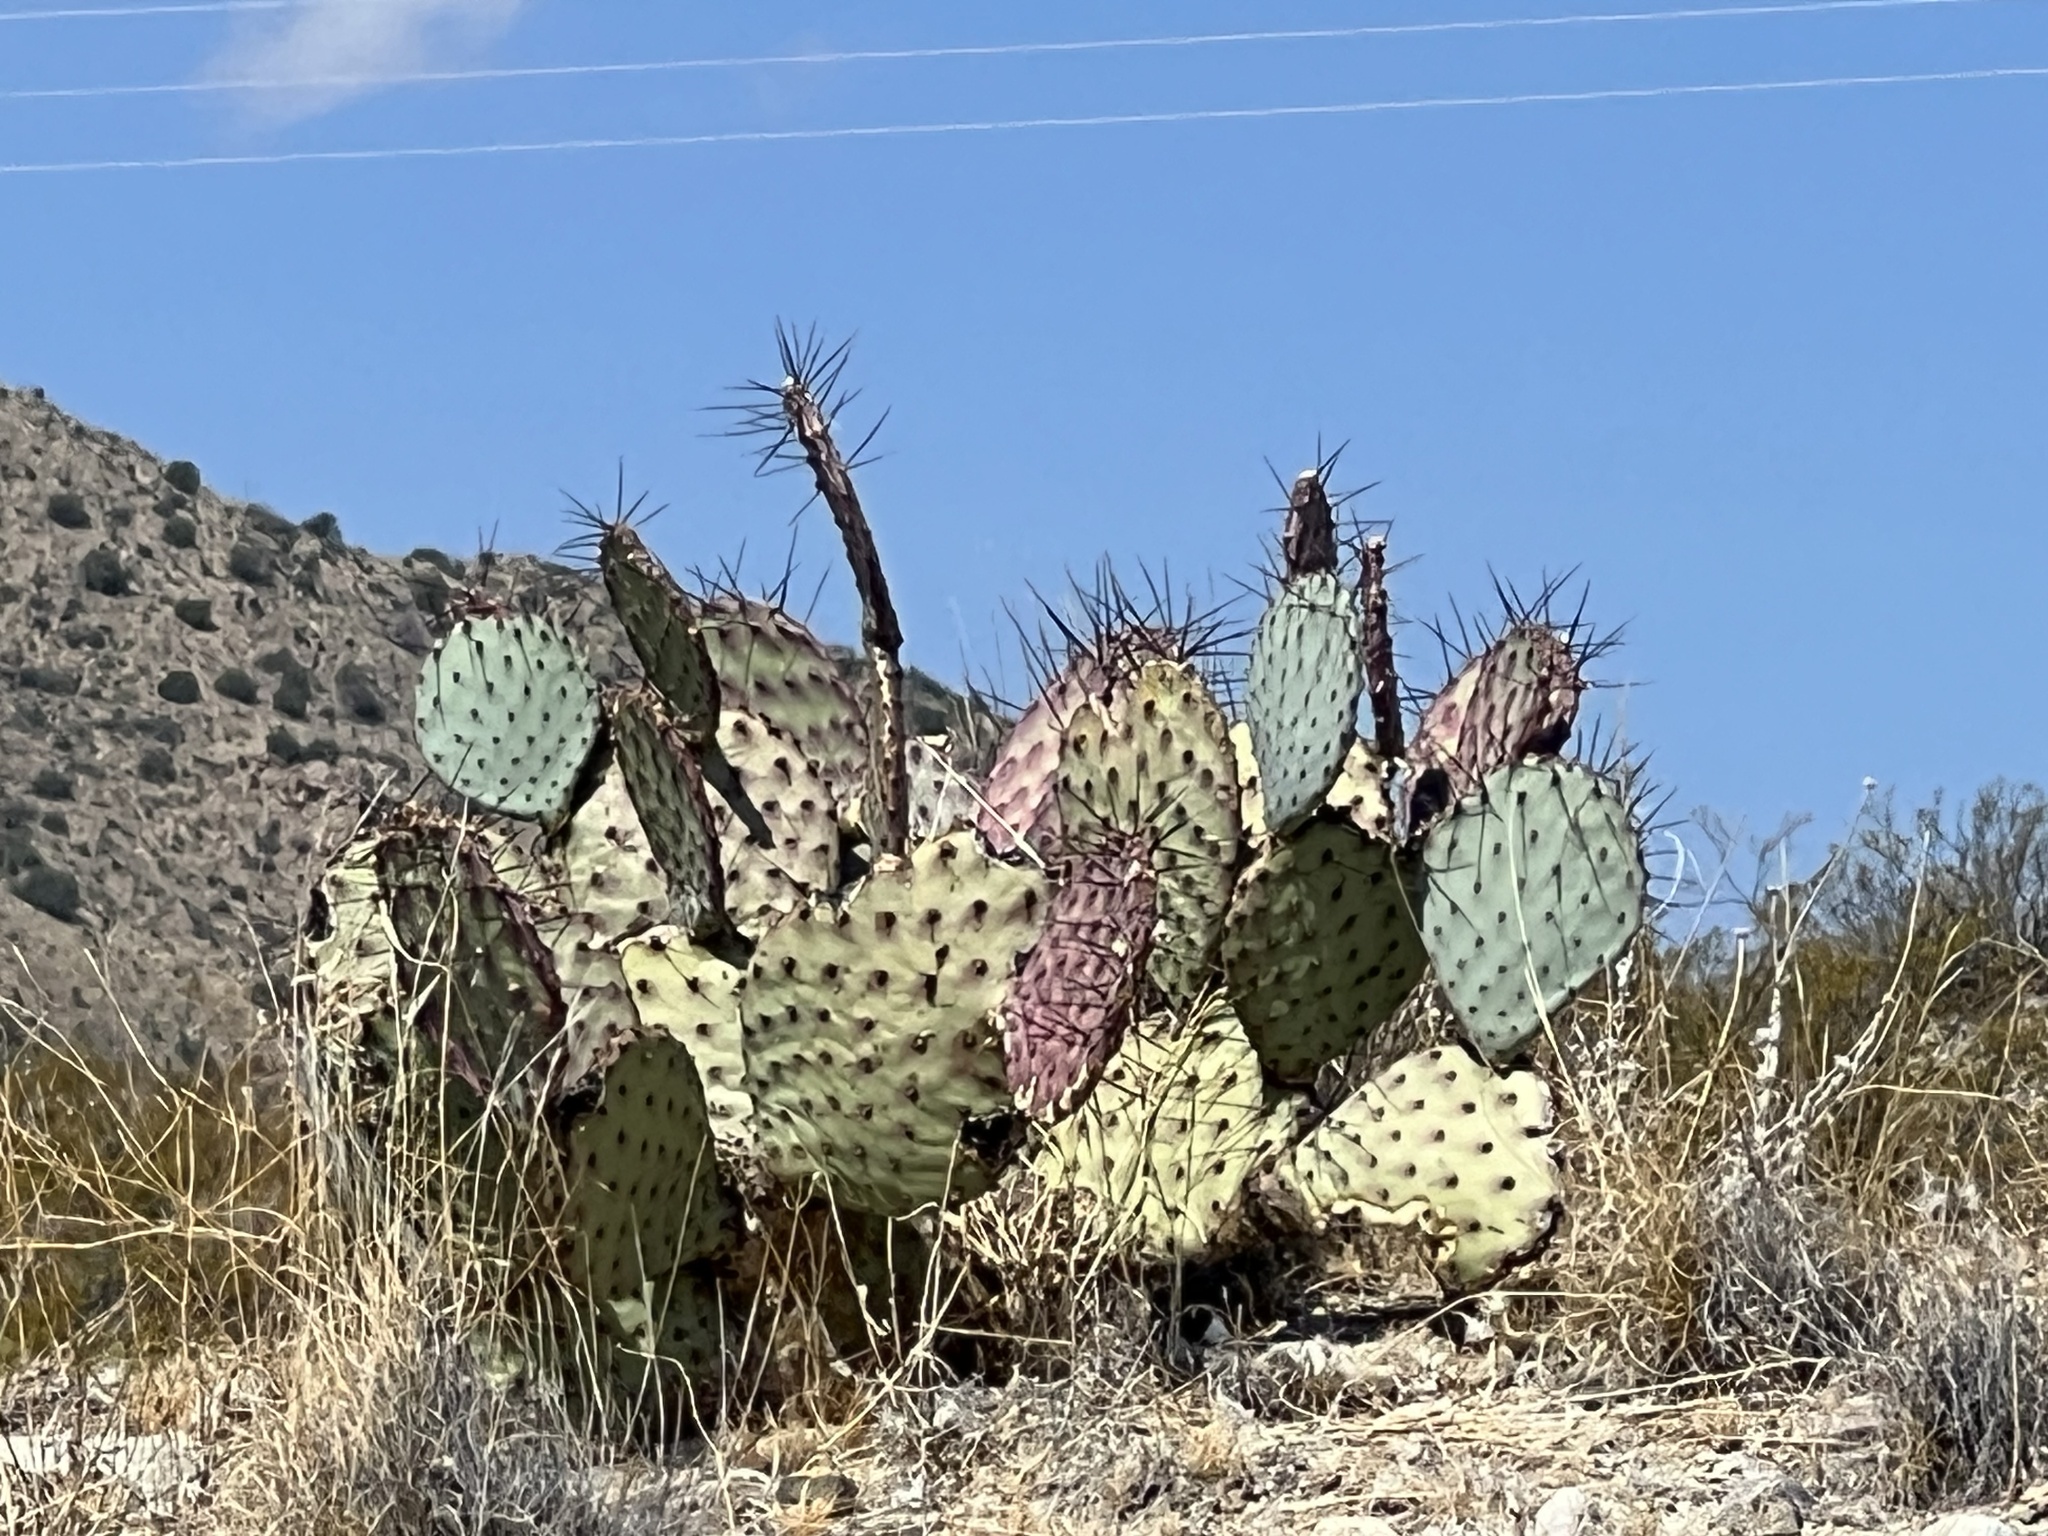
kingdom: Plantae
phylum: Tracheophyta
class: Magnoliopsida
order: Caryophyllales
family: Cactaceae
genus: Opuntia
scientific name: Opuntia macrocentra
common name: Purple prickly-pear
